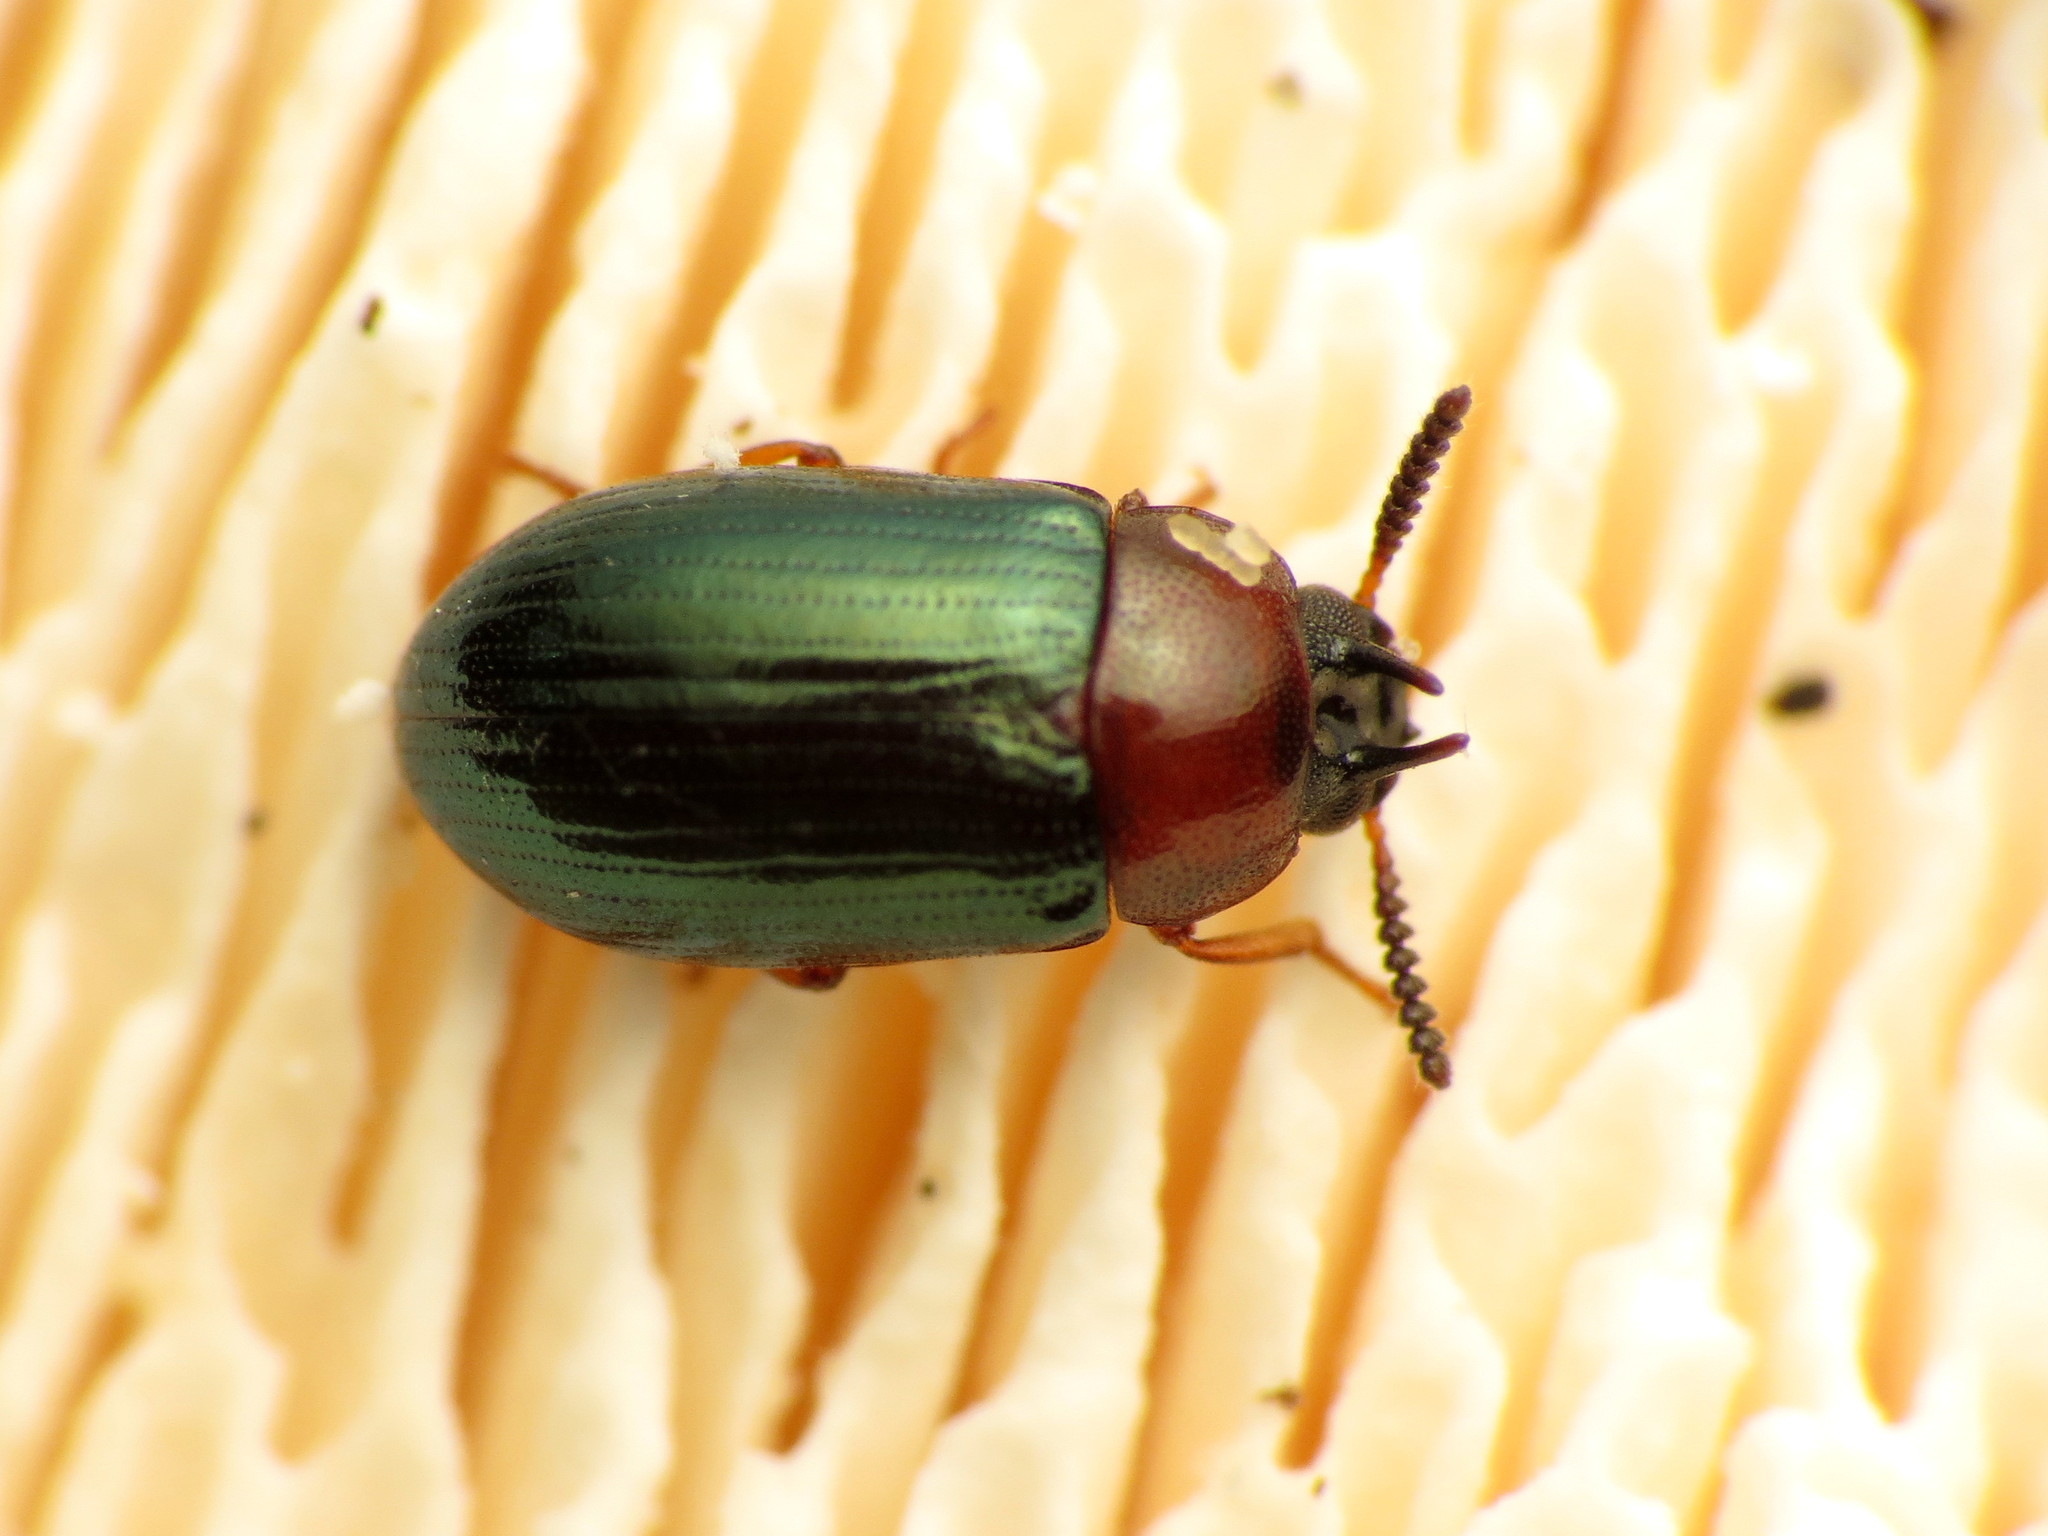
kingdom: Animalia
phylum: Arthropoda
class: Insecta
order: Coleoptera
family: Tenebrionidae
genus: Neomida
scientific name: Neomida bicornis
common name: Two-horned darkling beetle
